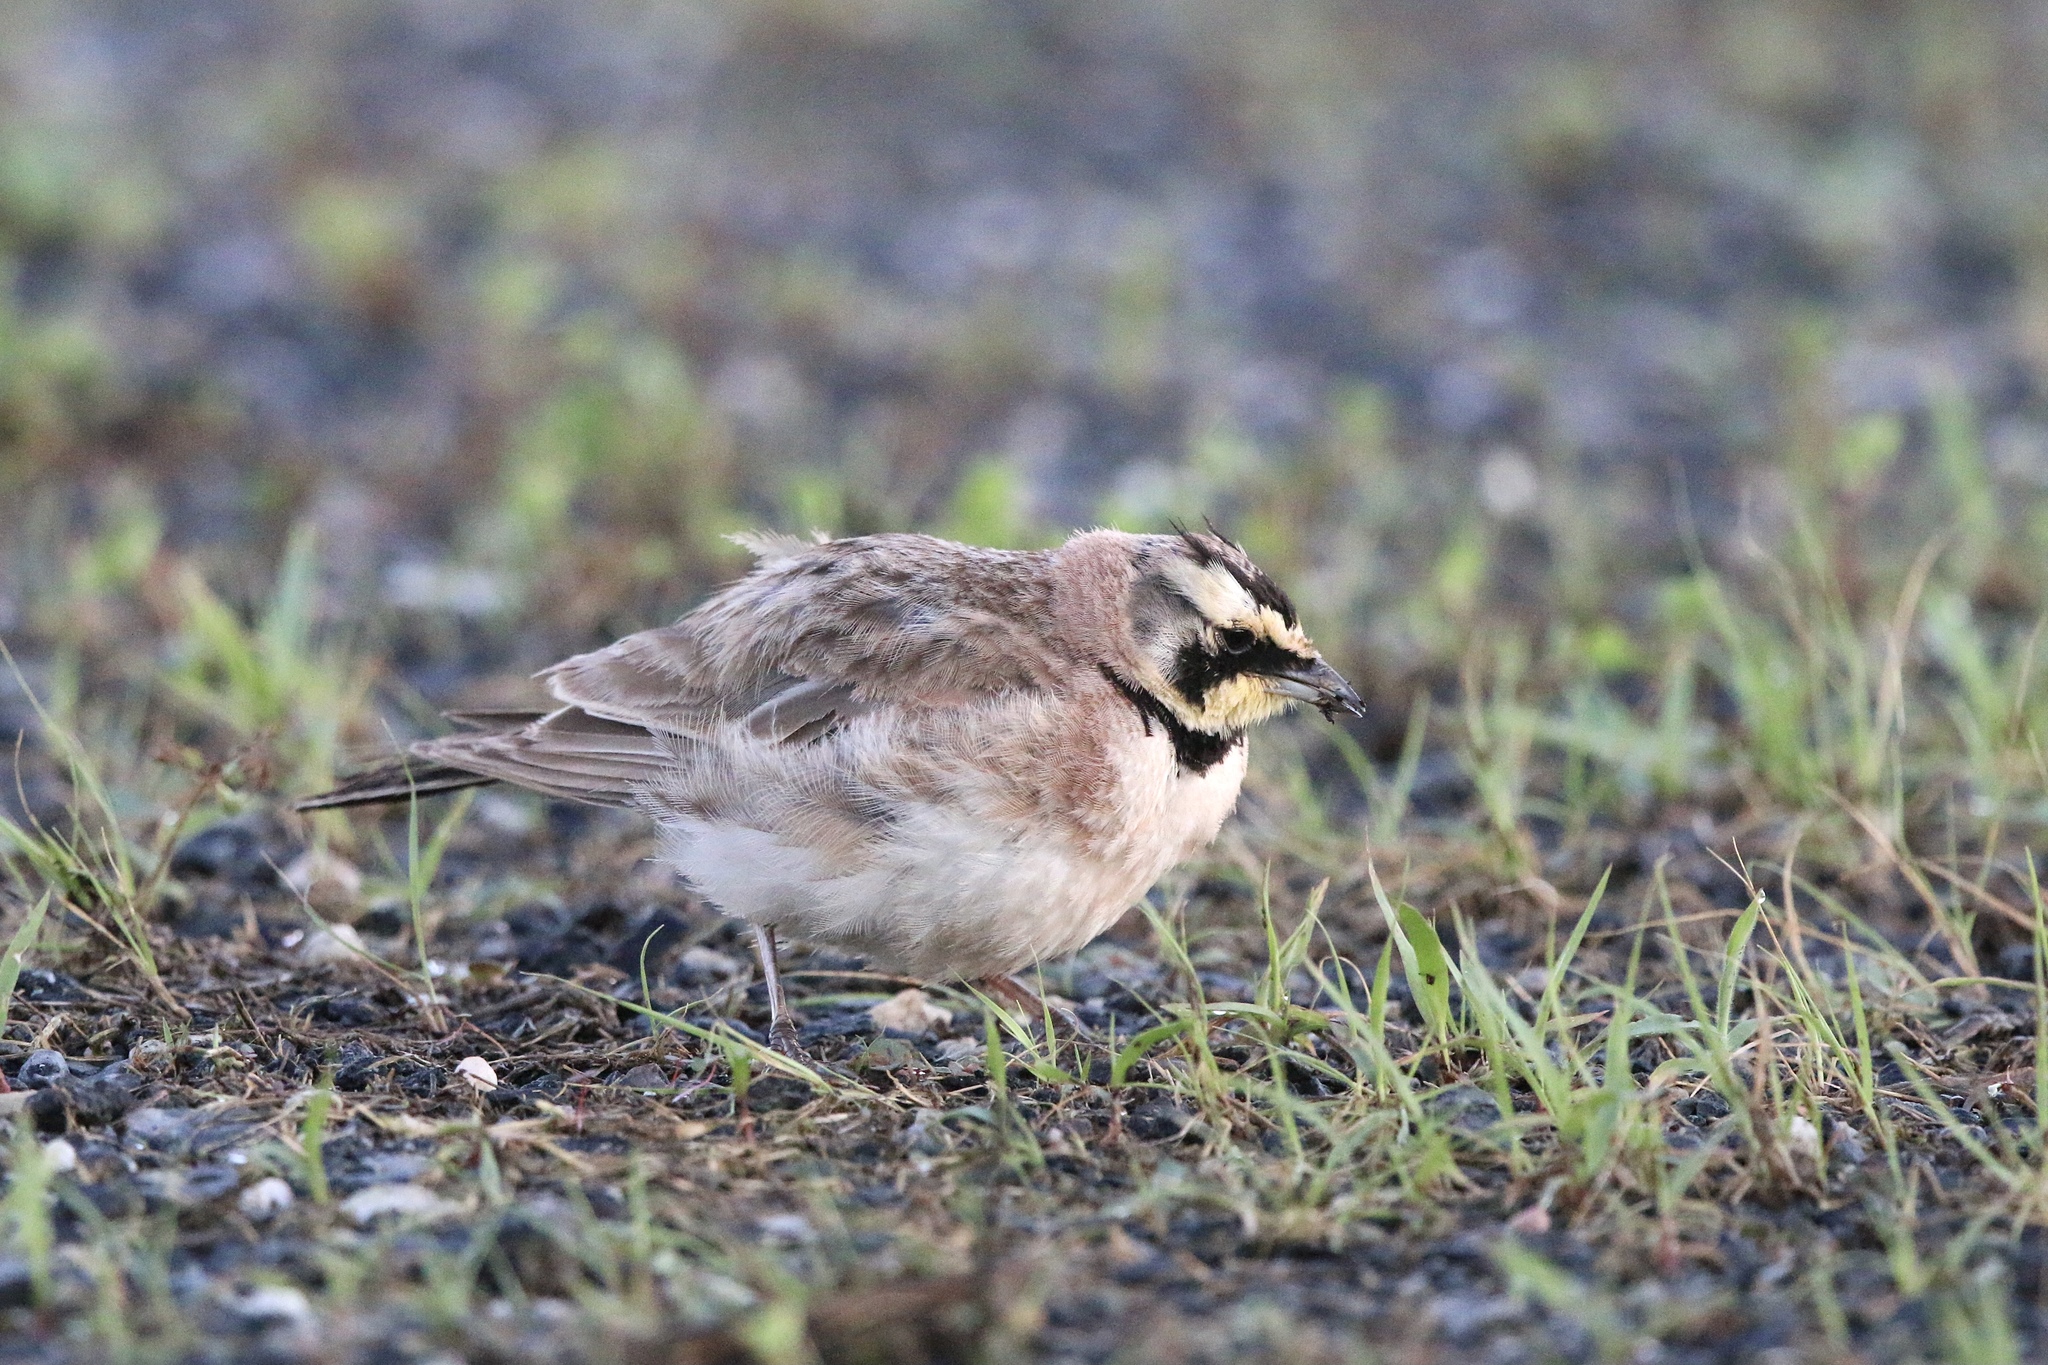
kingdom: Animalia
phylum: Chordata
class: Aves
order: Passeriformes
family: Alaudidae
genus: Eremophila
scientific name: Eremophila alpestris
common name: Horned lark
